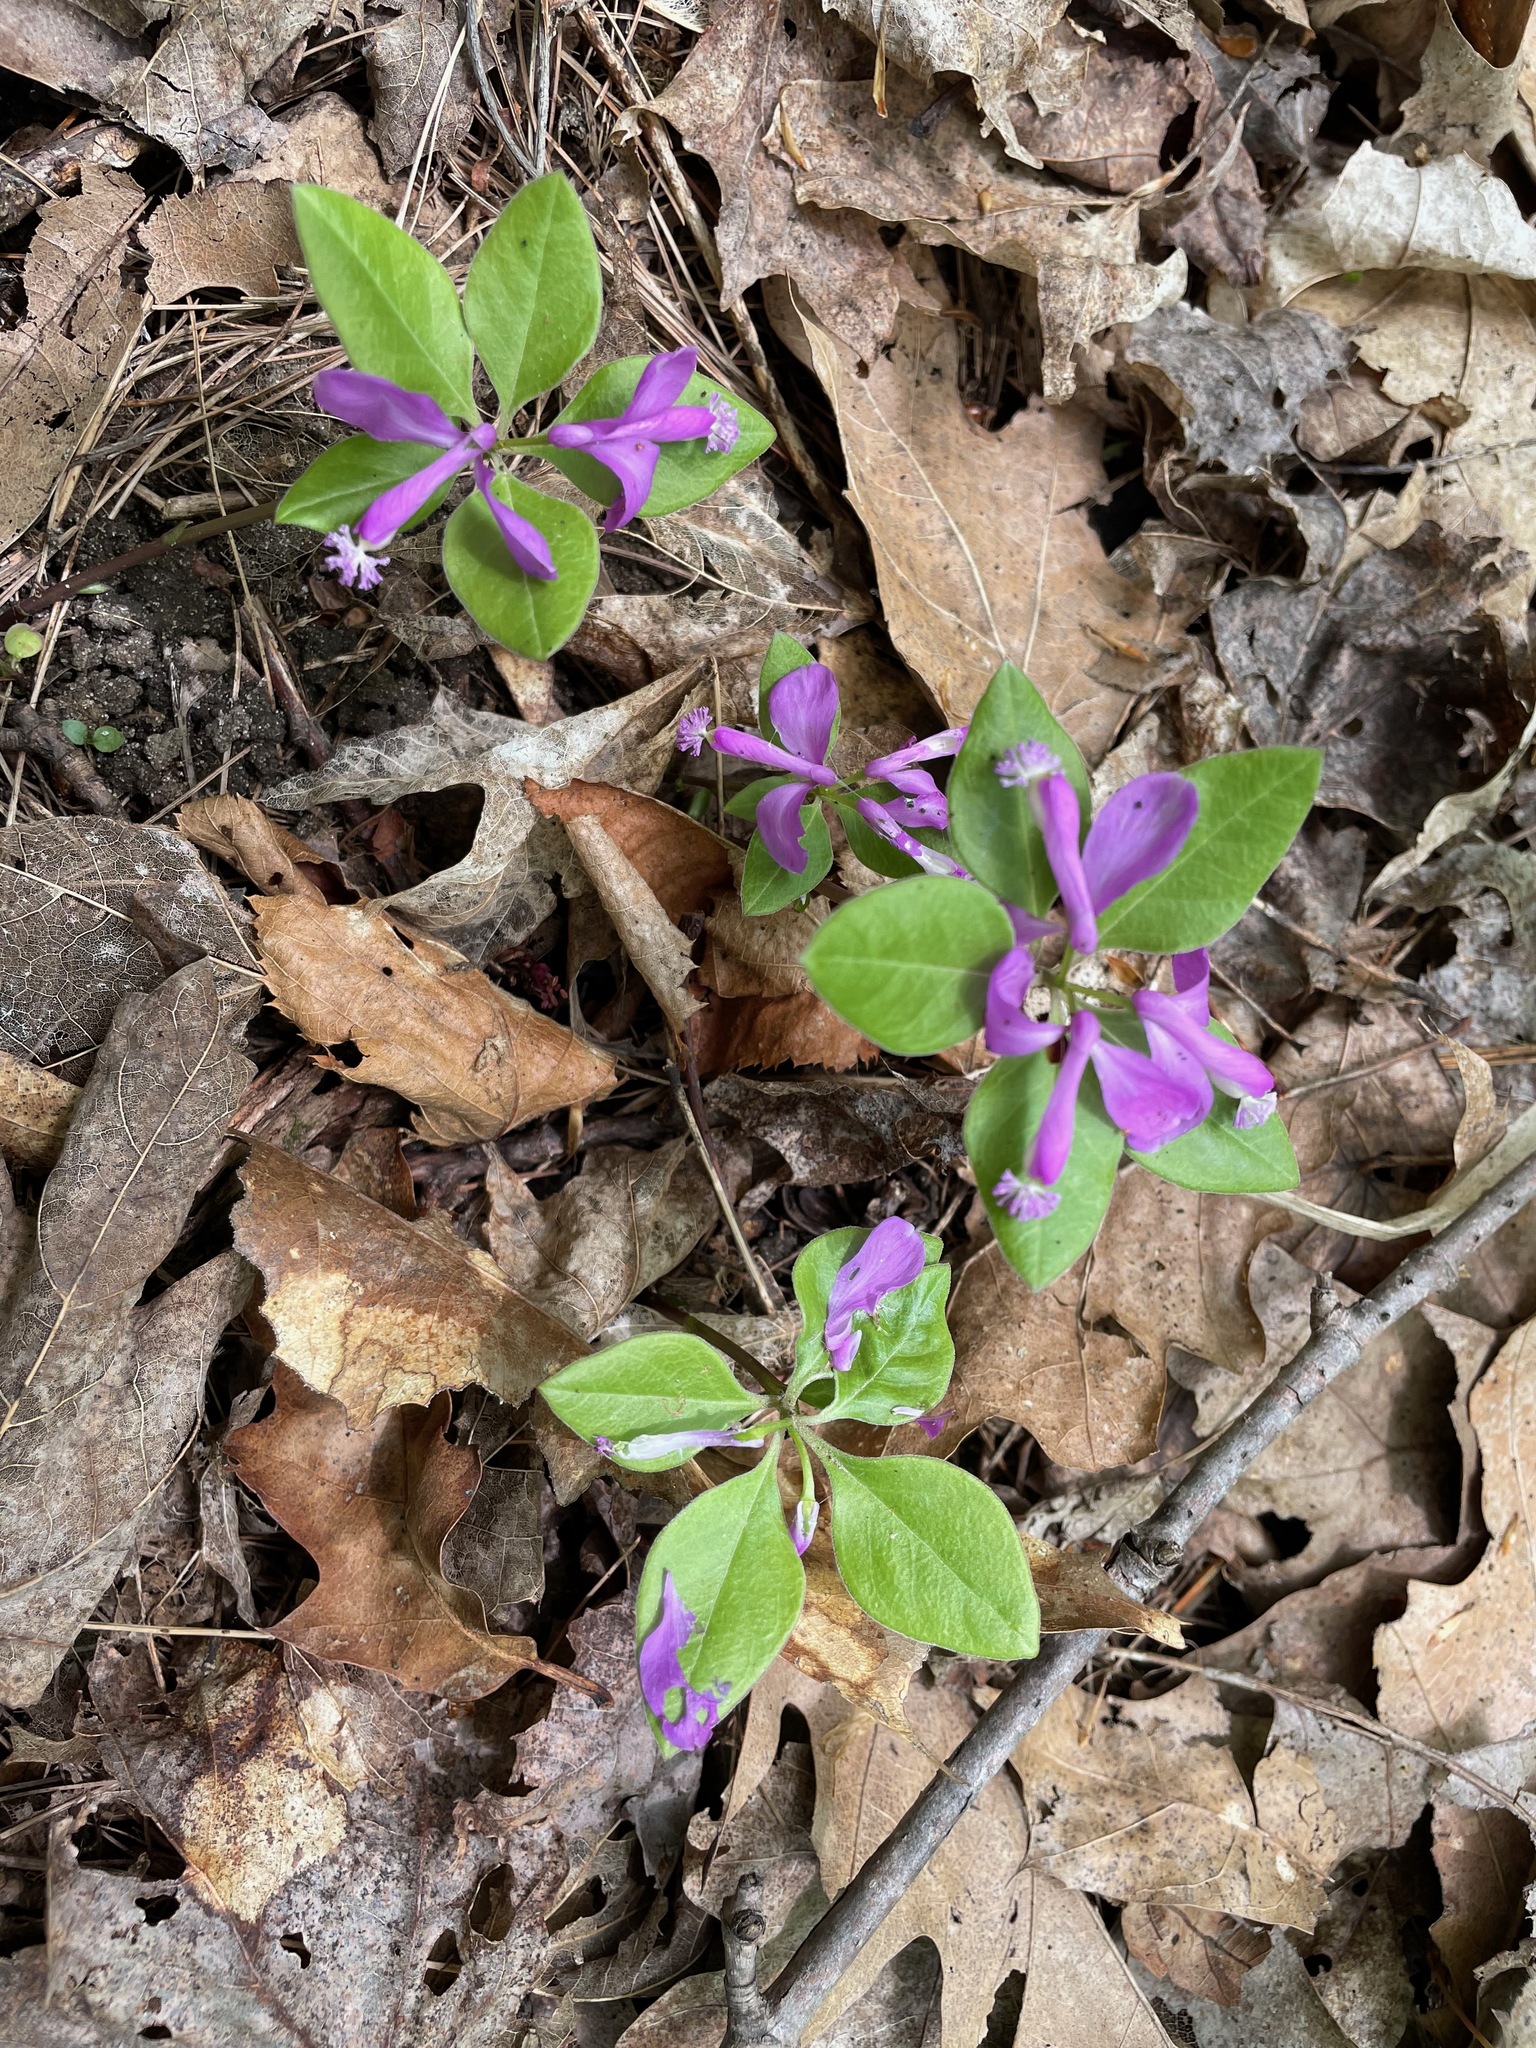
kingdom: Plantae
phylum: Tracheophyta
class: Magnoliopsida
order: Fabales
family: Polygalaceae
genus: Polygaloides
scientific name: Polygaloides paucifolia
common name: Bird-on-the-wing
